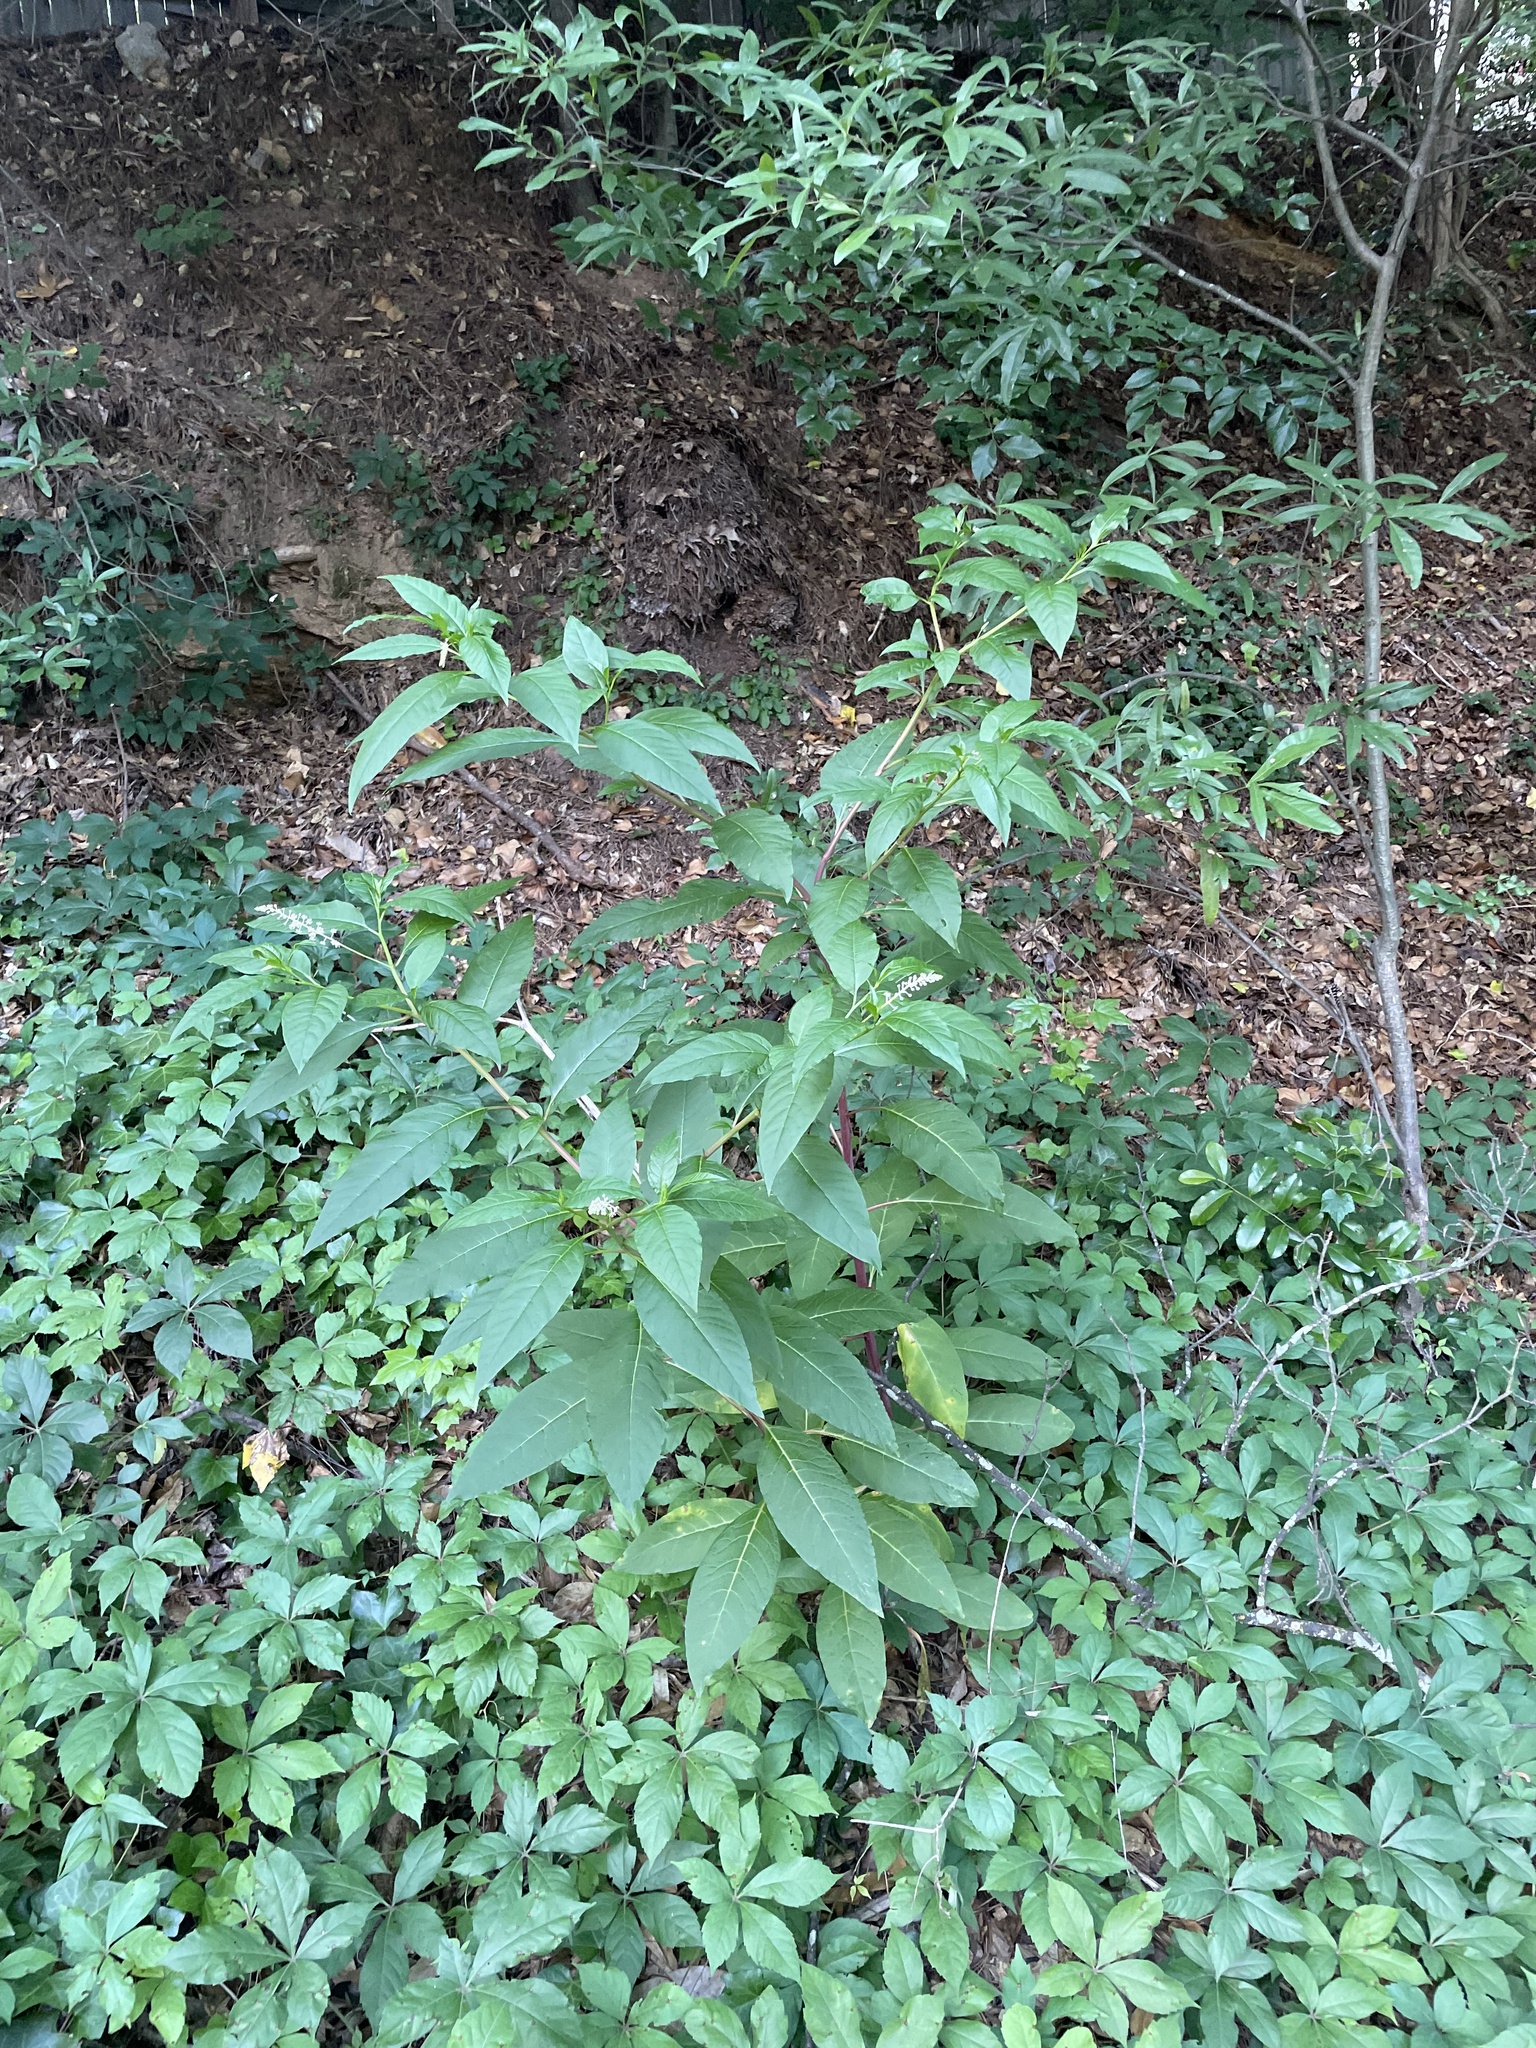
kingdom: Plantae
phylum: Tracheophyta
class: Magnoliopsida
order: Caryophyllales
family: Phytolaccaceae
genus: Phytolacca
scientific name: Phytolacca americana
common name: American pokeweed
